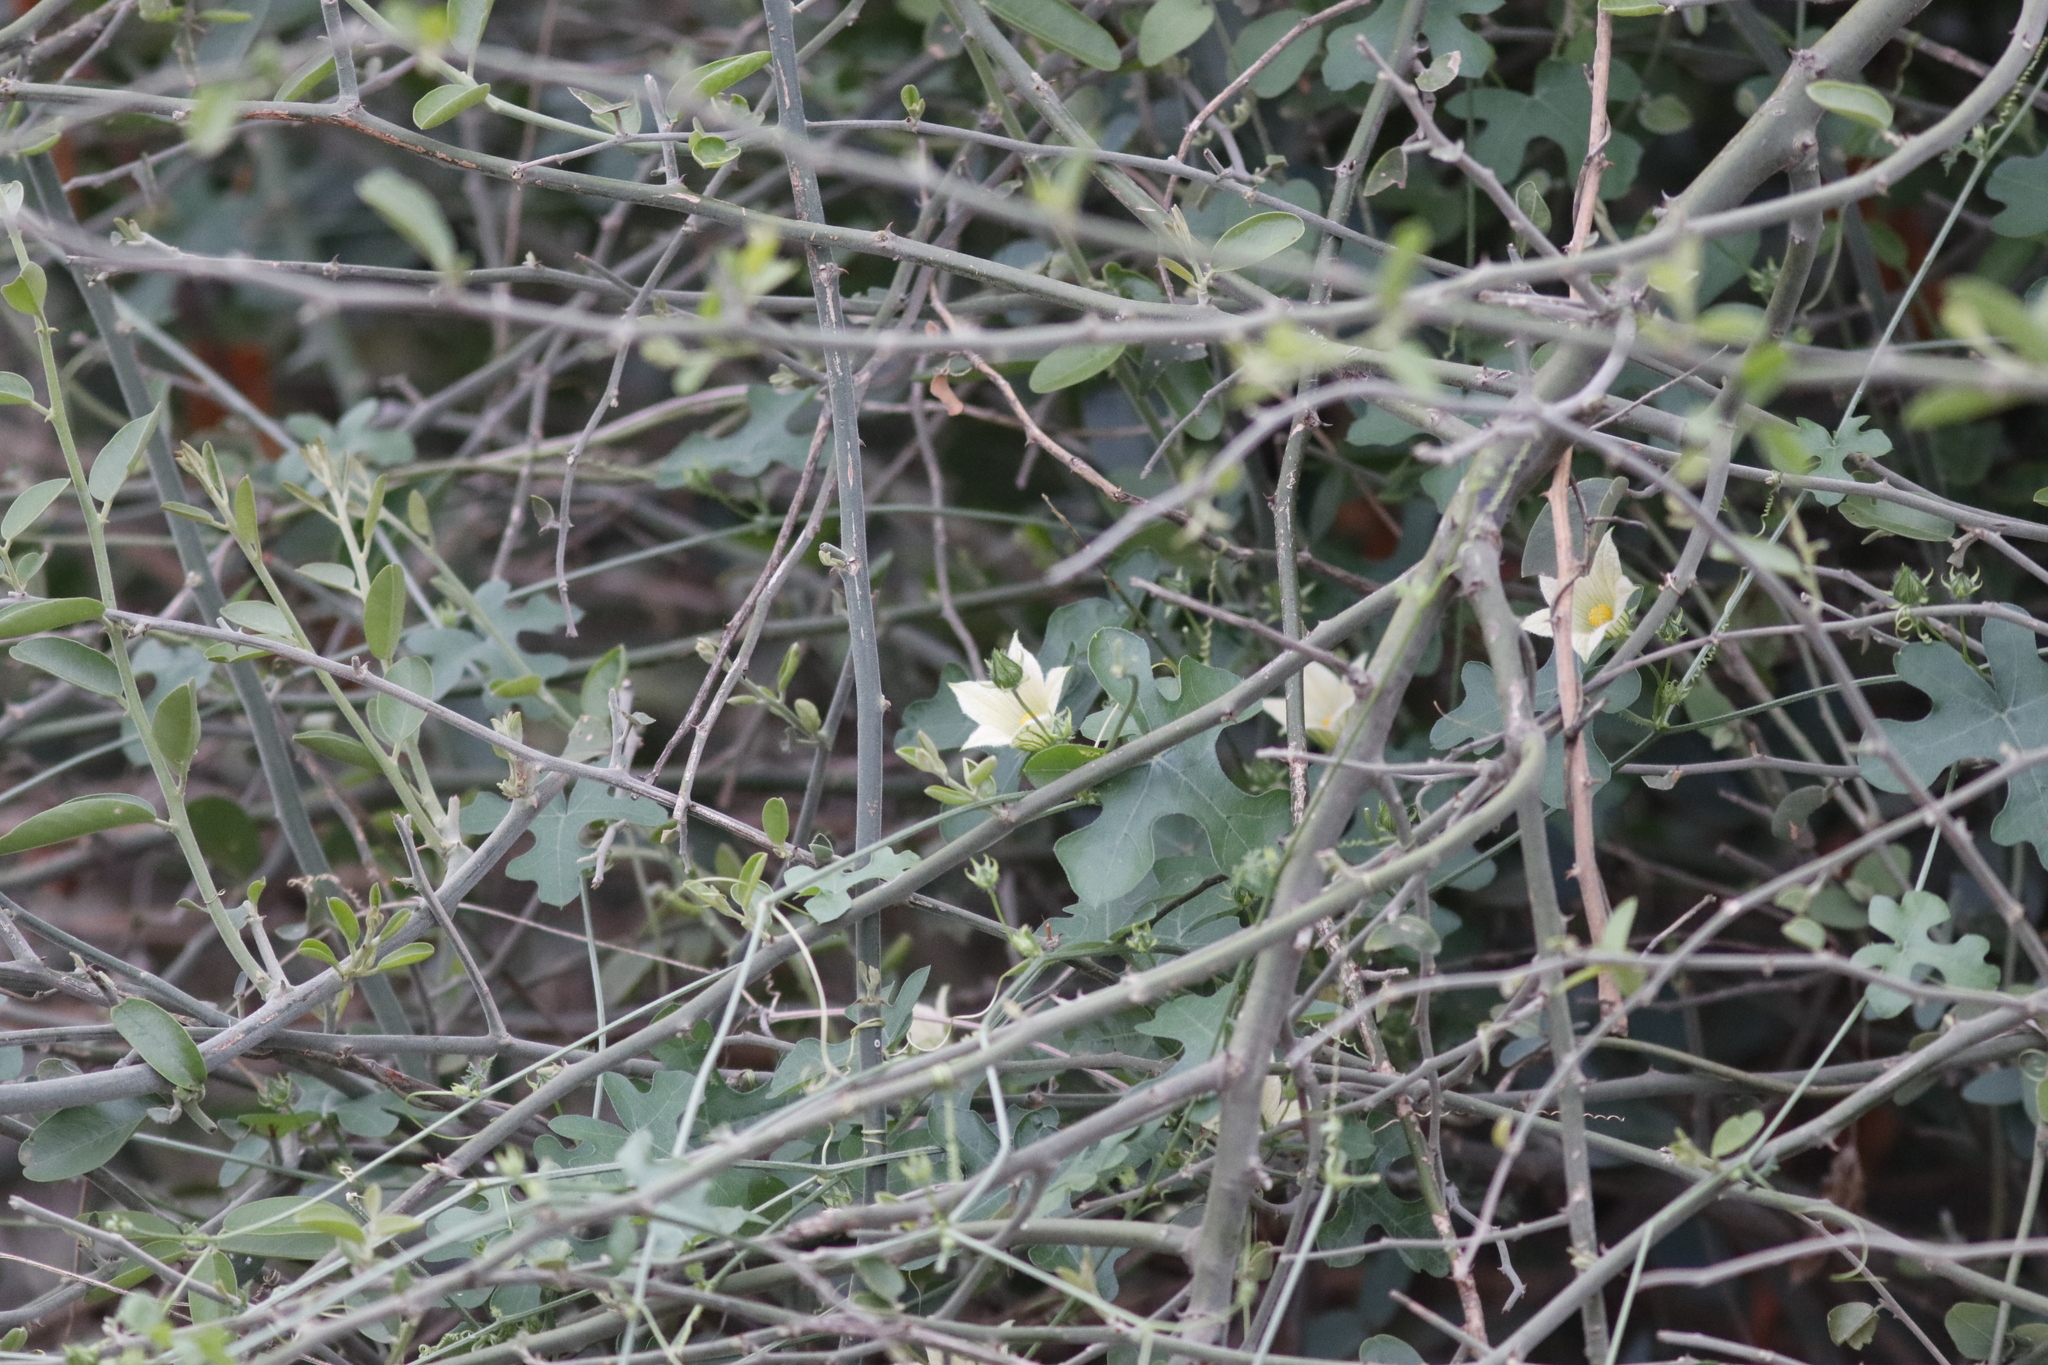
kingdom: Plantae
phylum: Tracheophyta
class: Magnoliopsida
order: Cucurbitales
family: Cucurbitaceae
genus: Coccinia
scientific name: Coccinia rehmannii
